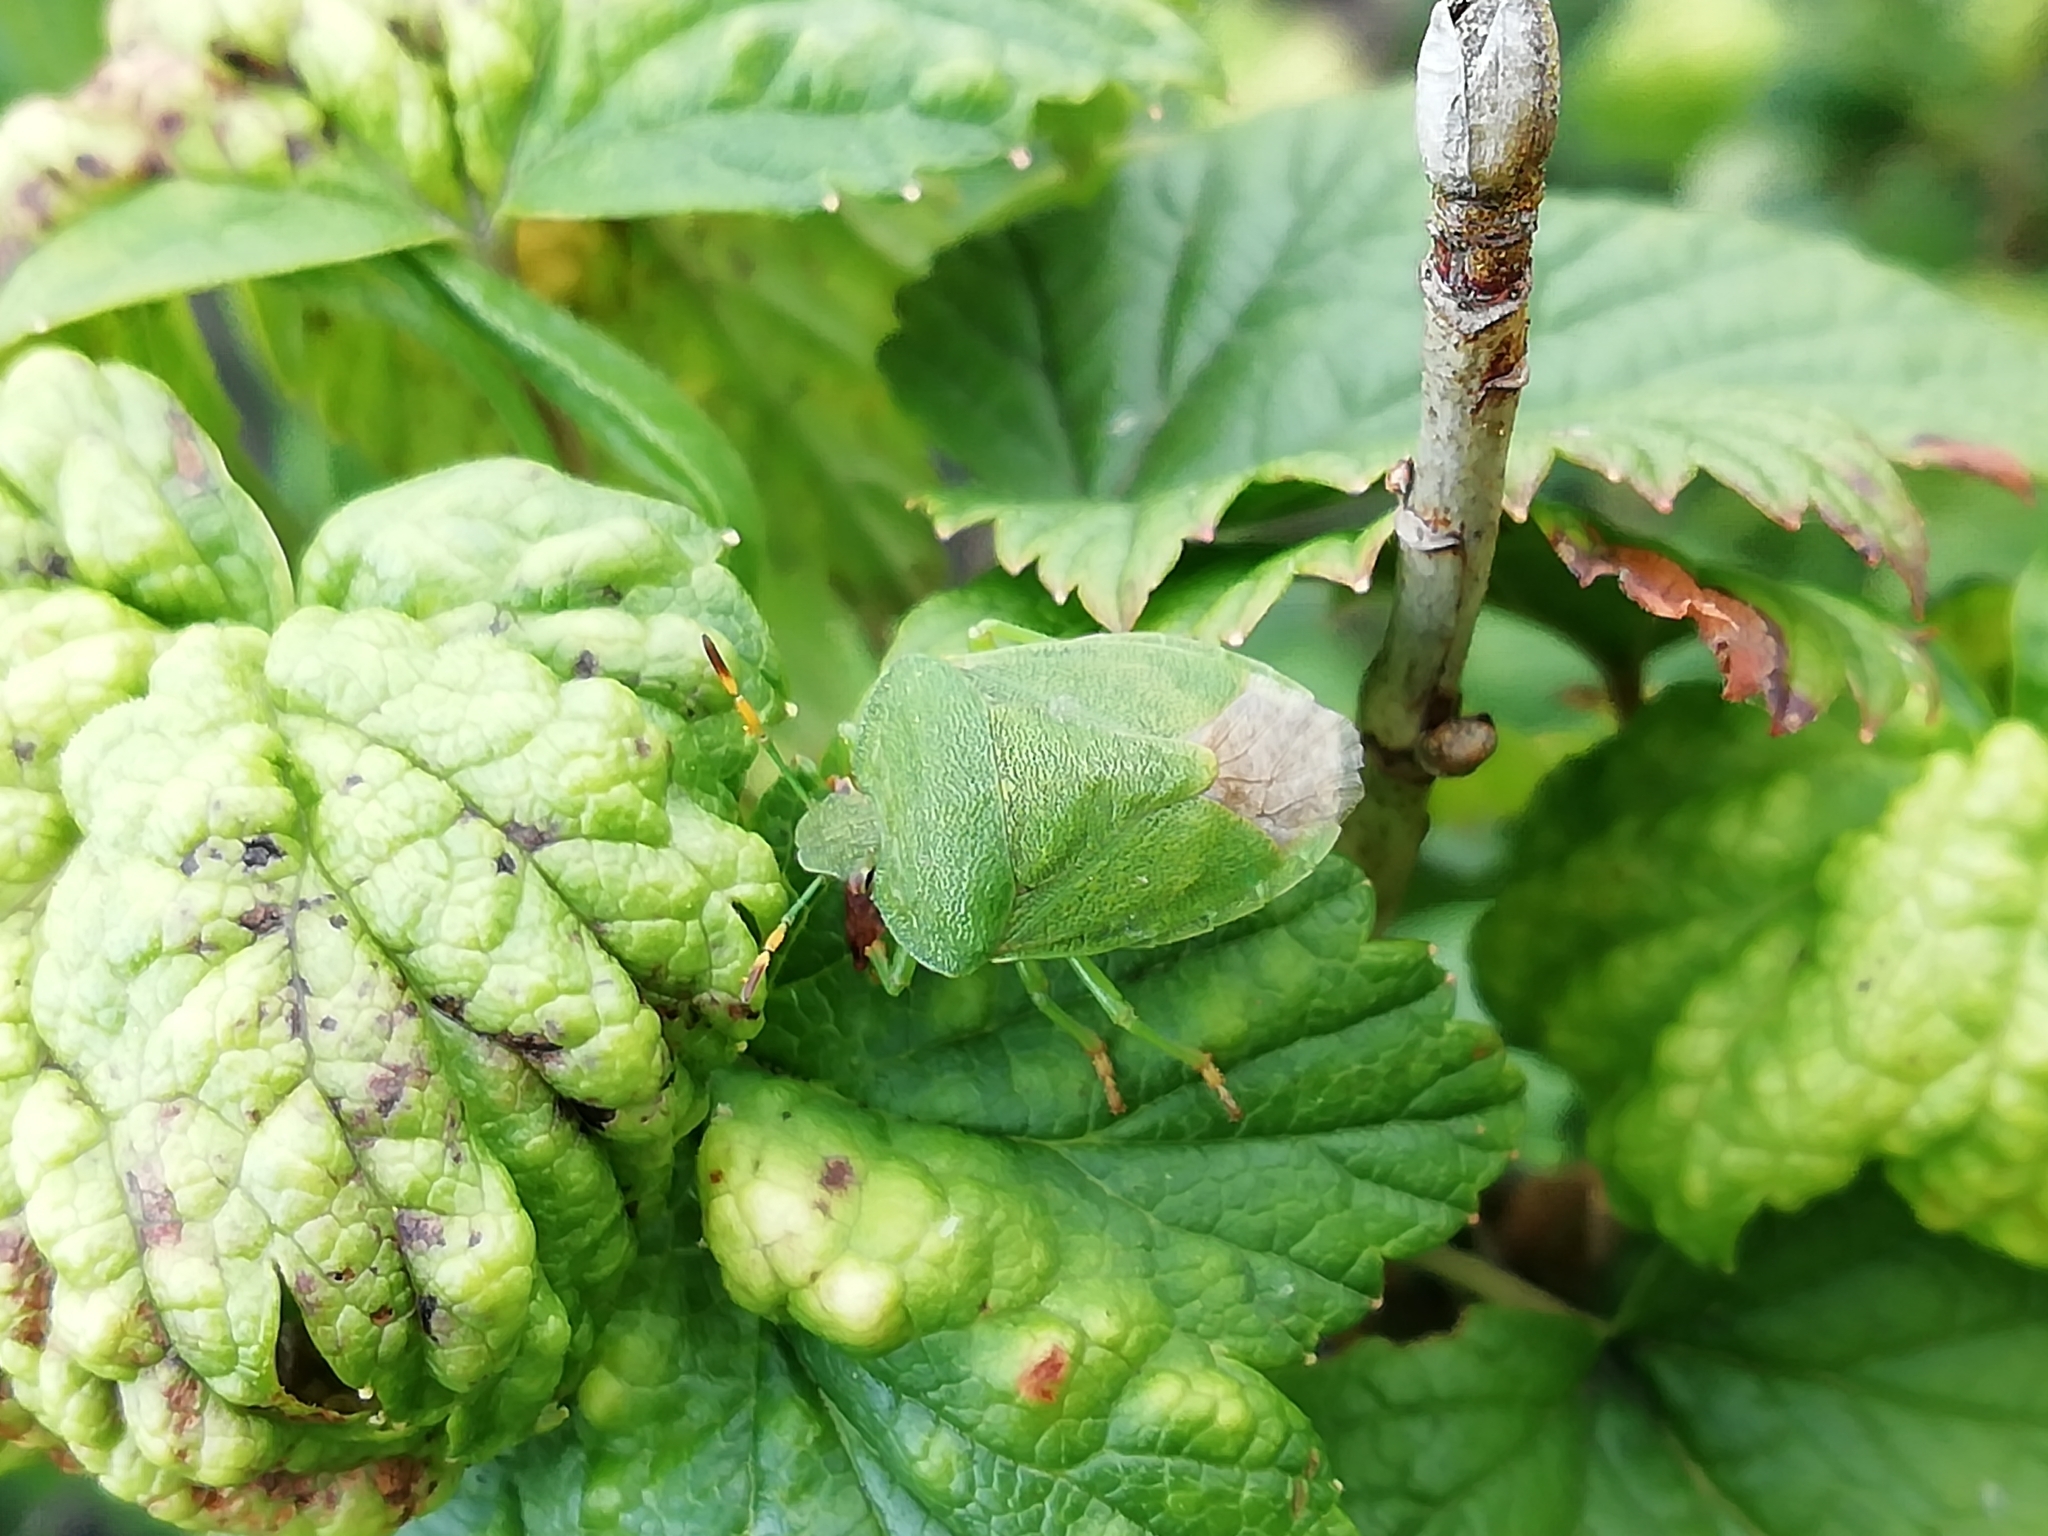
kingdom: Animalia
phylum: Arthropoda
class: Insecta
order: Hemiptera
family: Pentatomidae
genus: Palomena
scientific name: Palomena prasina
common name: Green shieldbug
